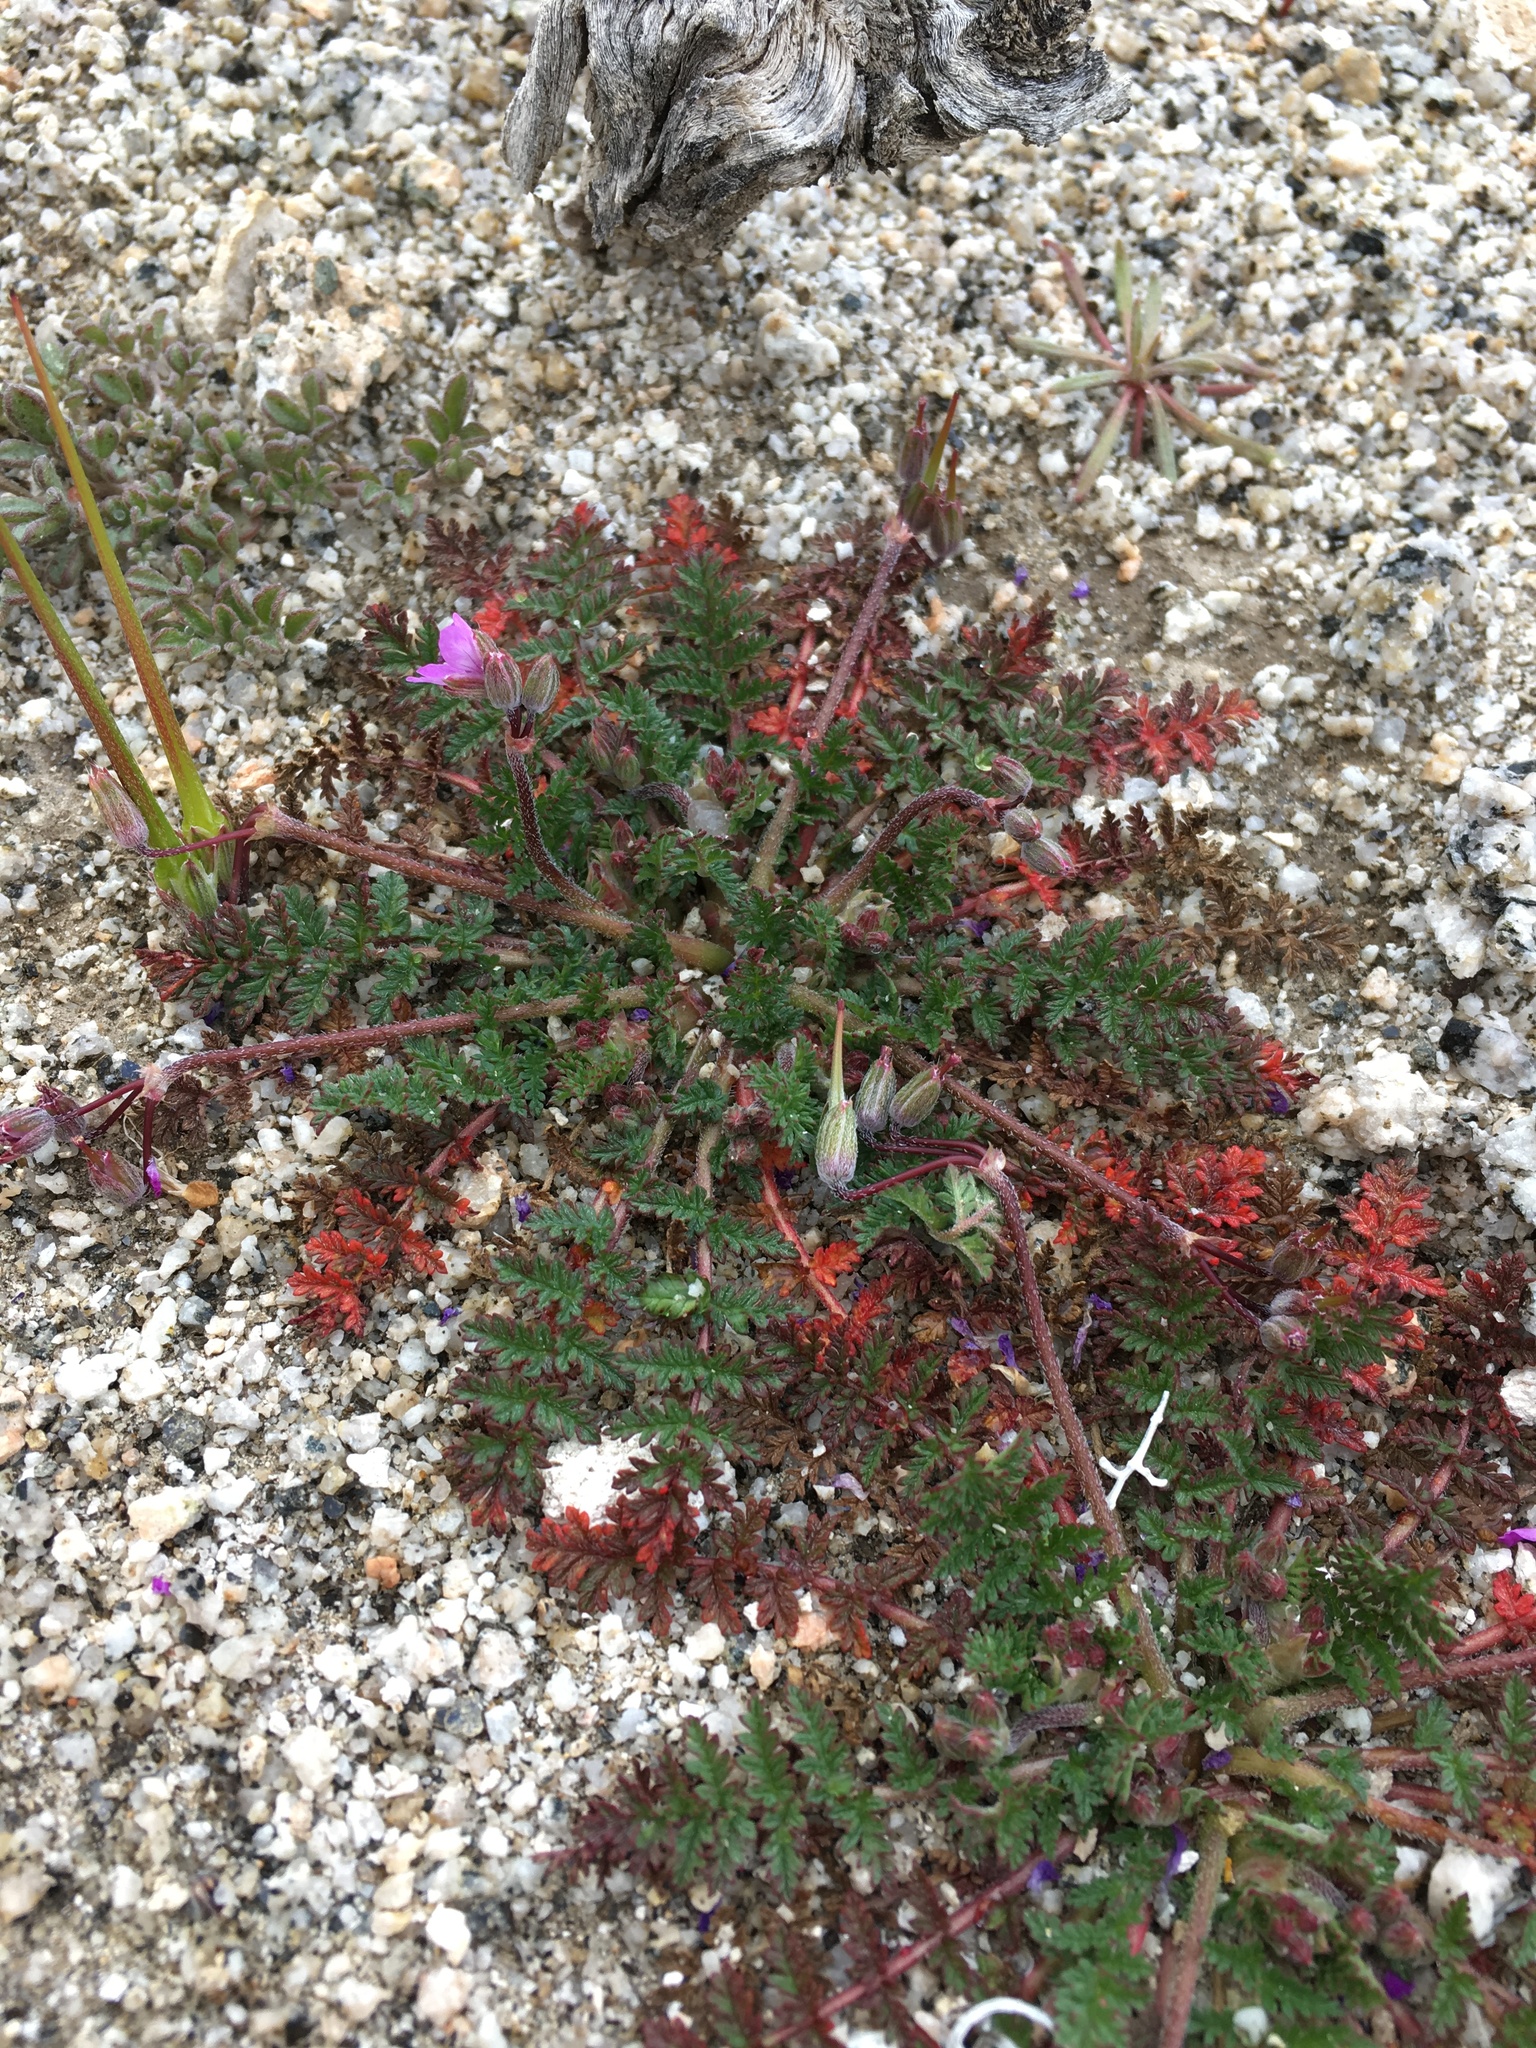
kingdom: Plantae
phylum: Tracheophyta
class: Magnoliopsida
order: Geraniales
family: Geraniaceae
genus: Erodium
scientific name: Erodium cicutarium
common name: Common stork's-bill
